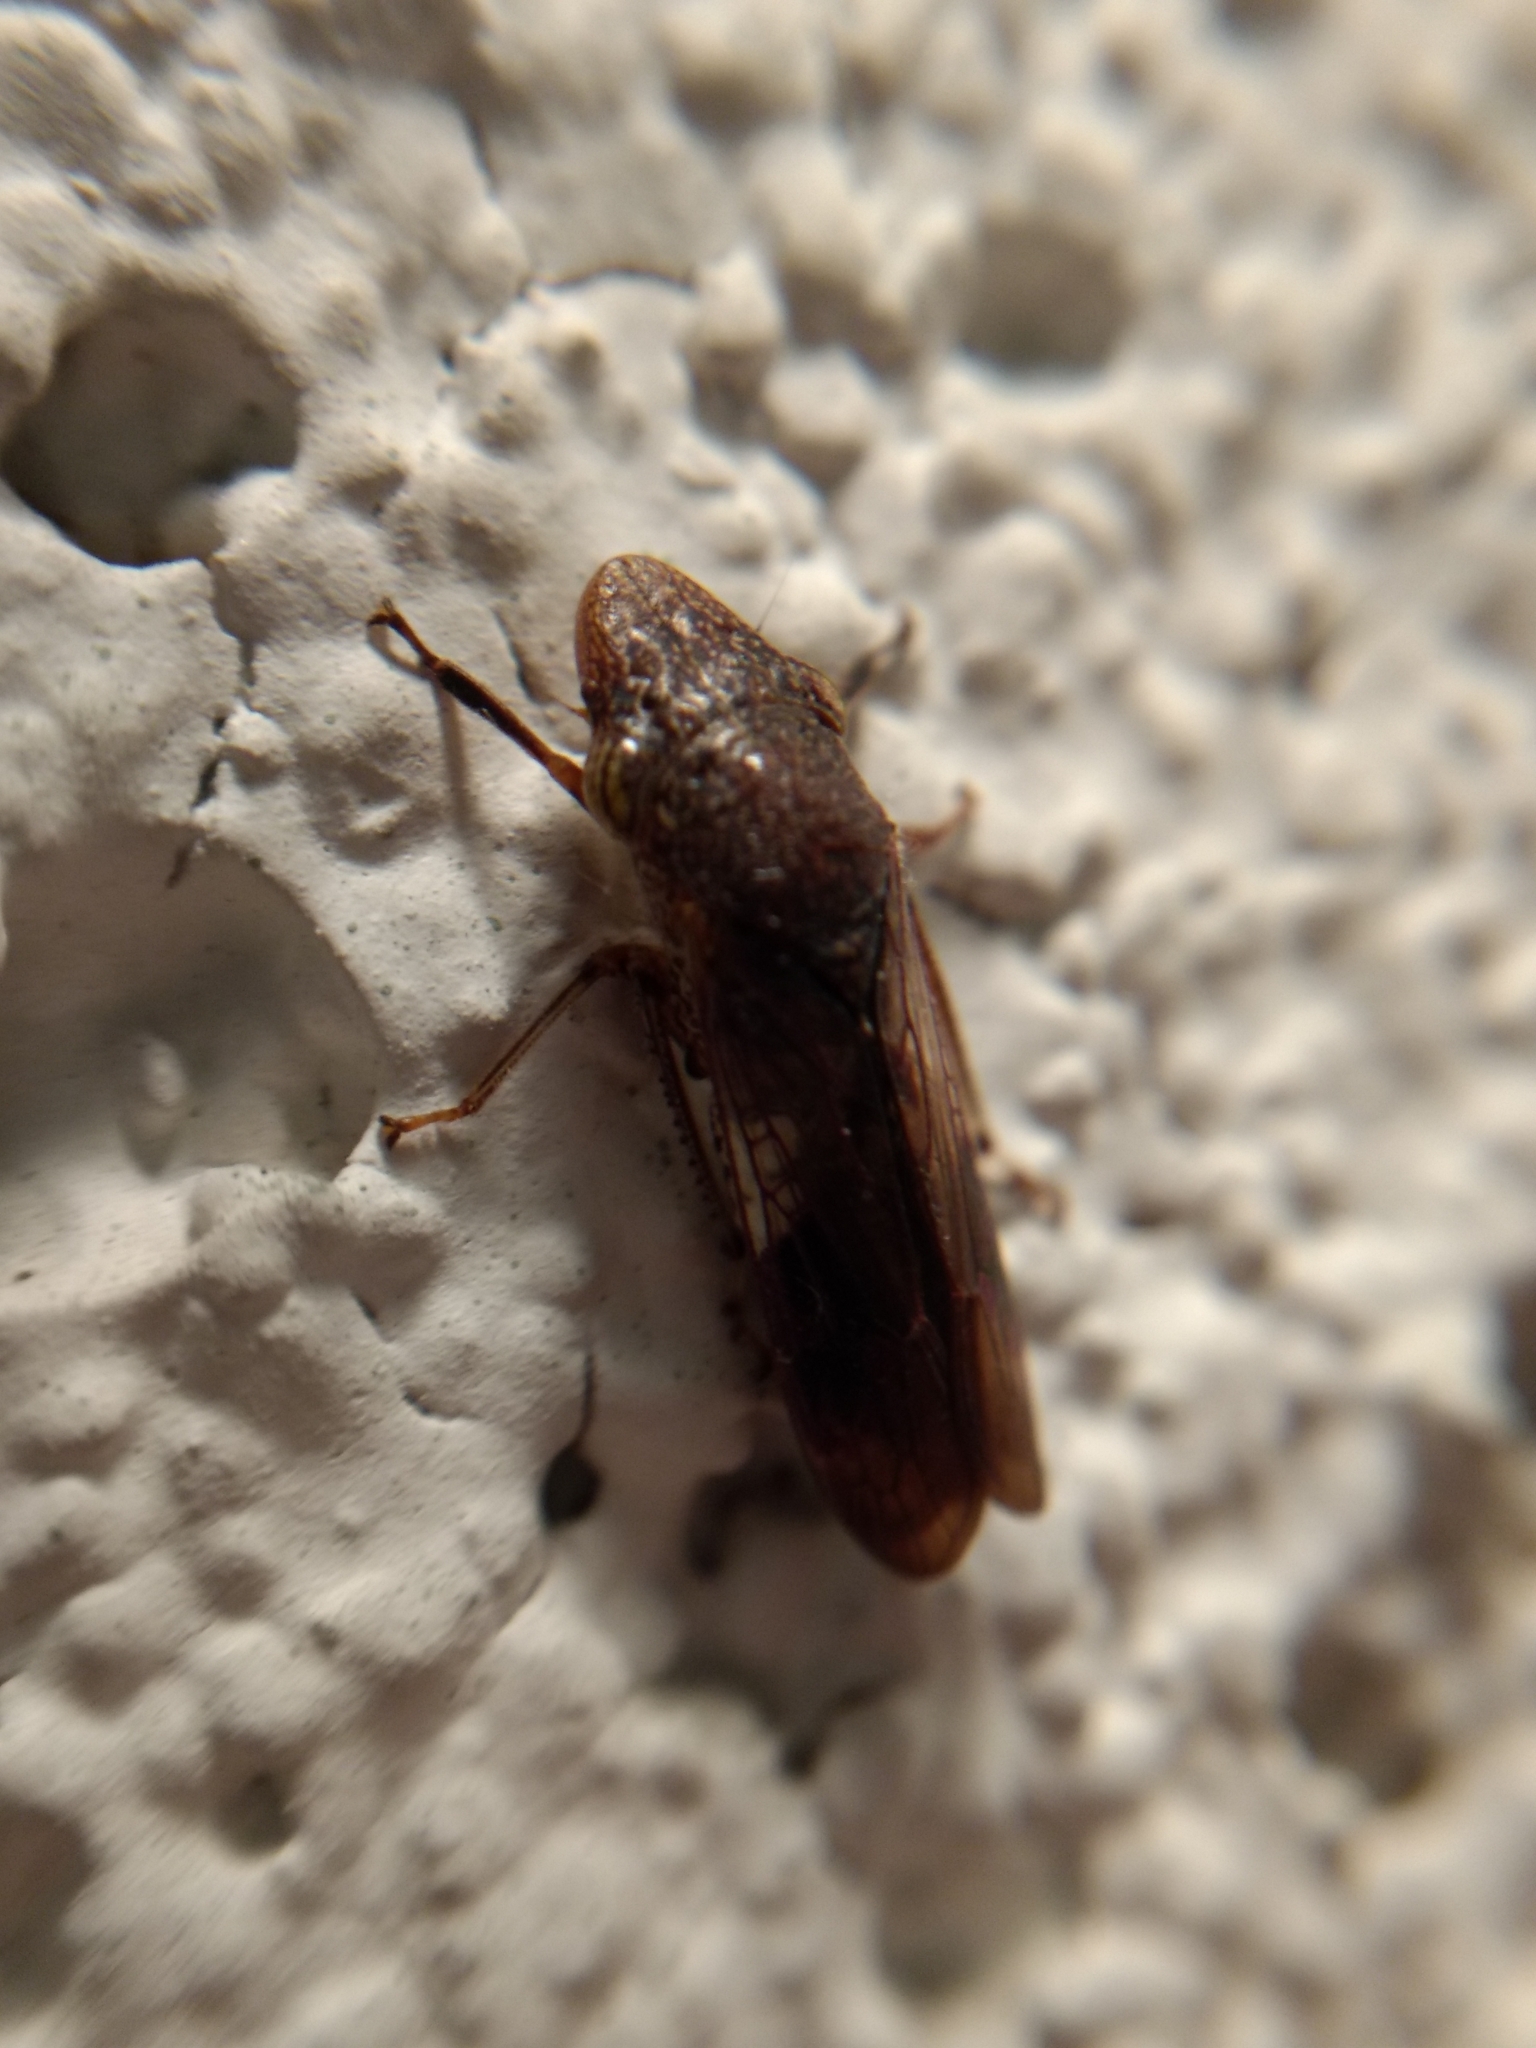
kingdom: Animalia
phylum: Arthropoda
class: Insecta
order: Hemiptera
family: Cicadellidae
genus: Homalodisca
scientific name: Homalodisca vitripennis
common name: Glassy-winged sharpshooter
